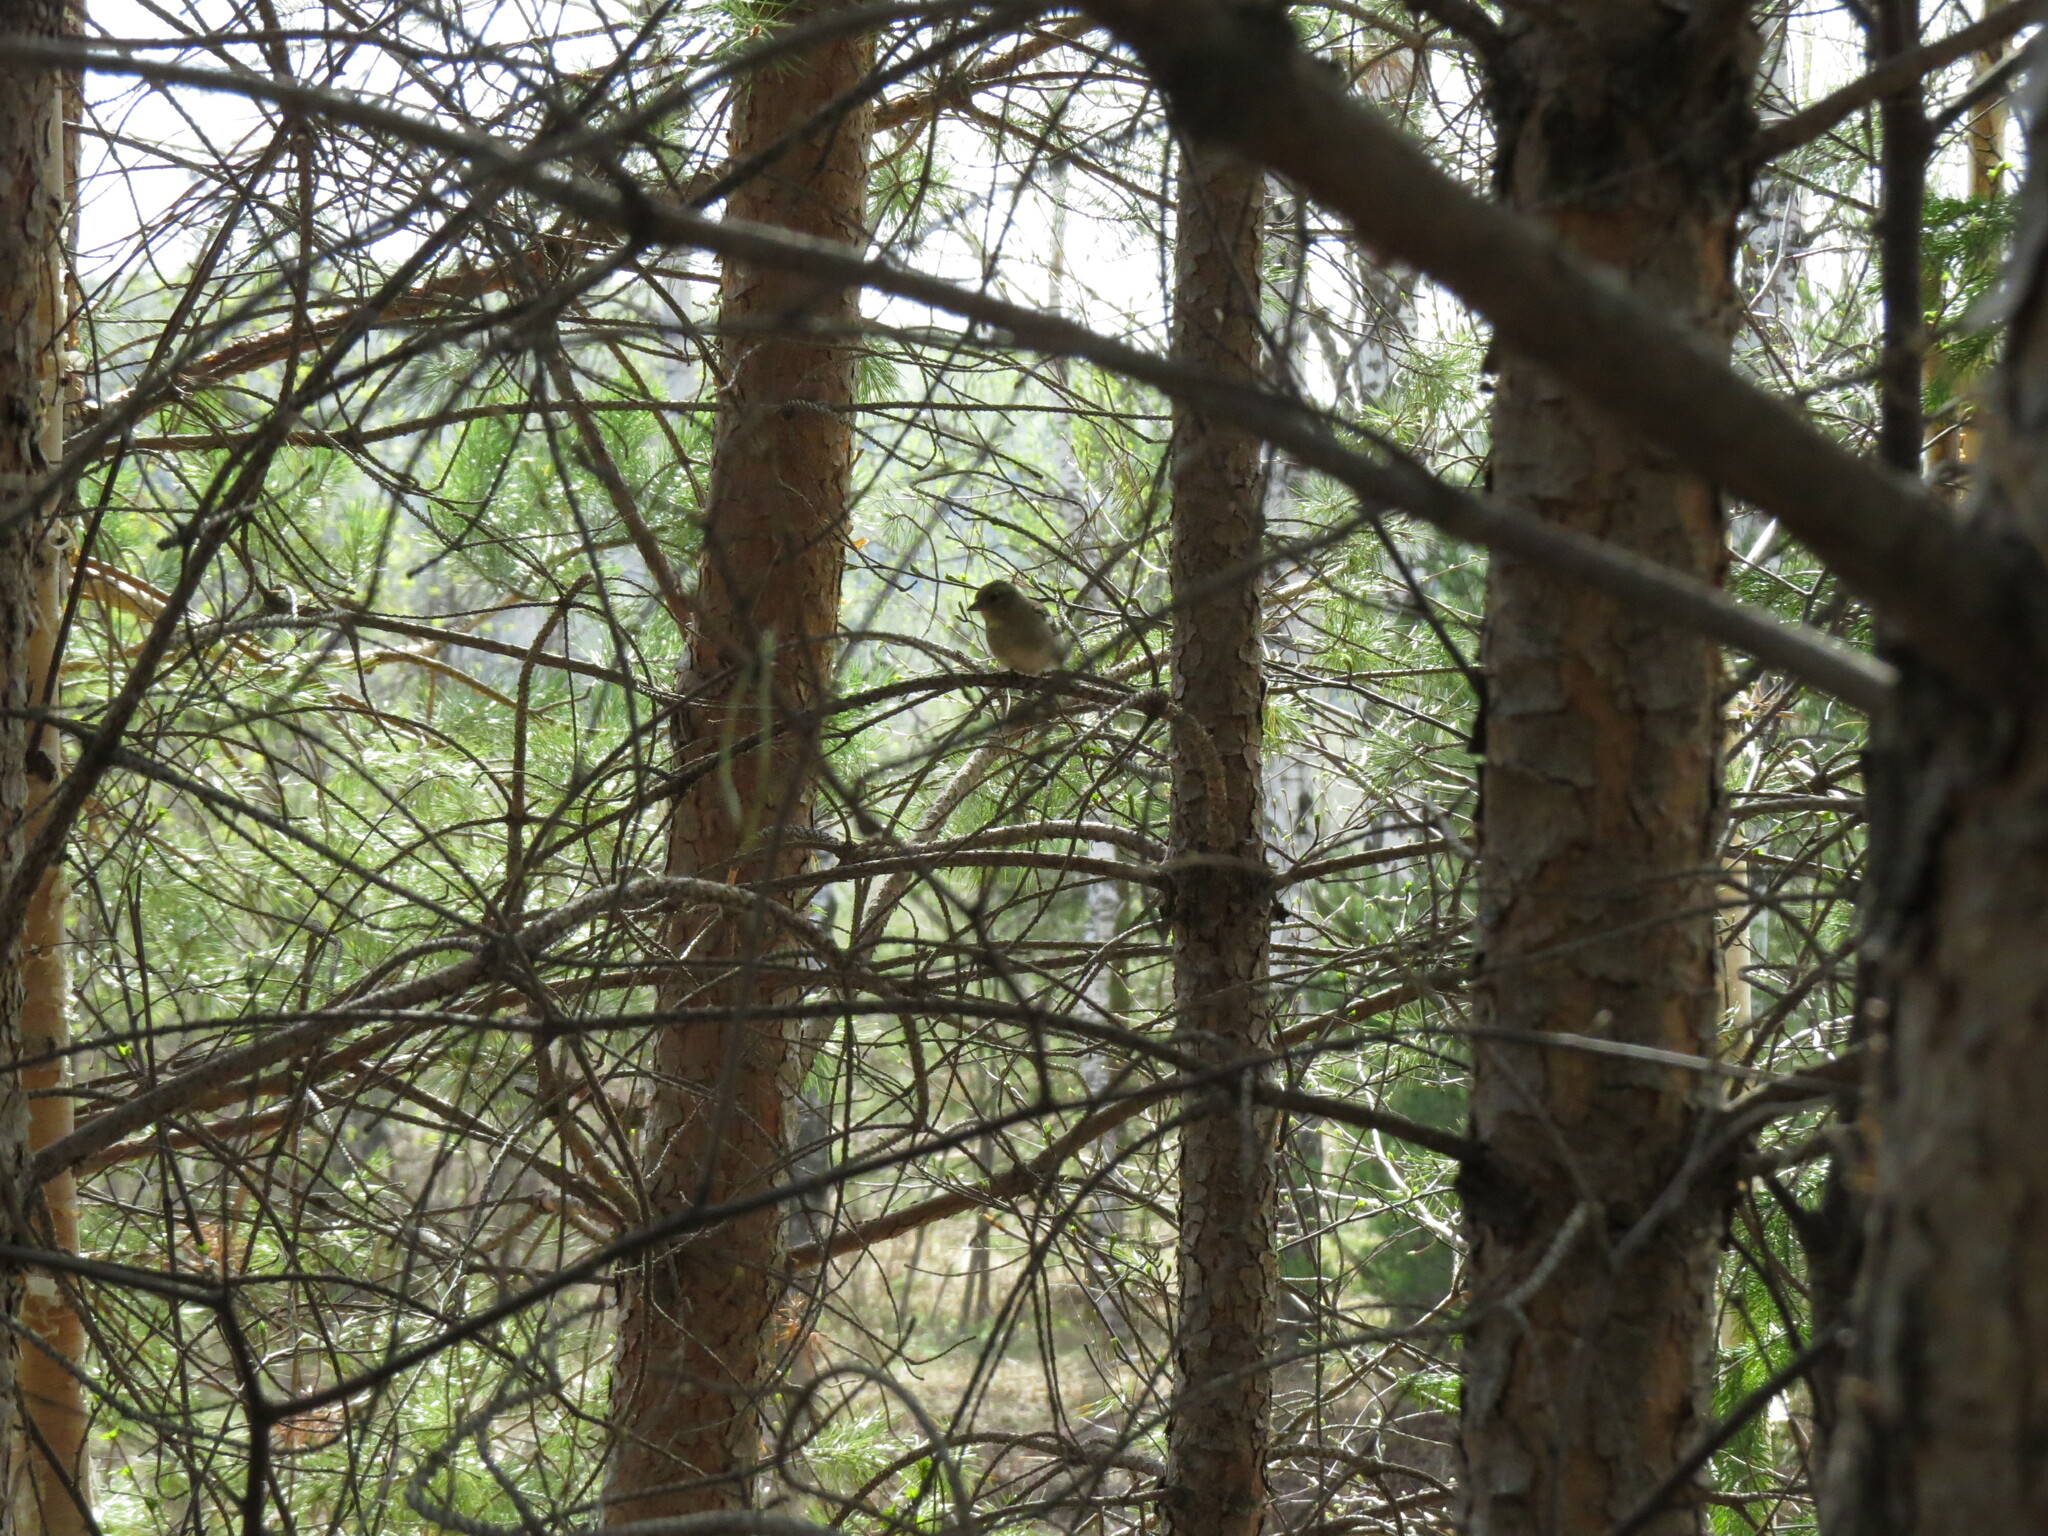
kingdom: Animalia
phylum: Chordata
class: Aves
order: Passeriformes
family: Fringillidae
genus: Fringilla
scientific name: Fringilla coelebs
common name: Common chaffinch
